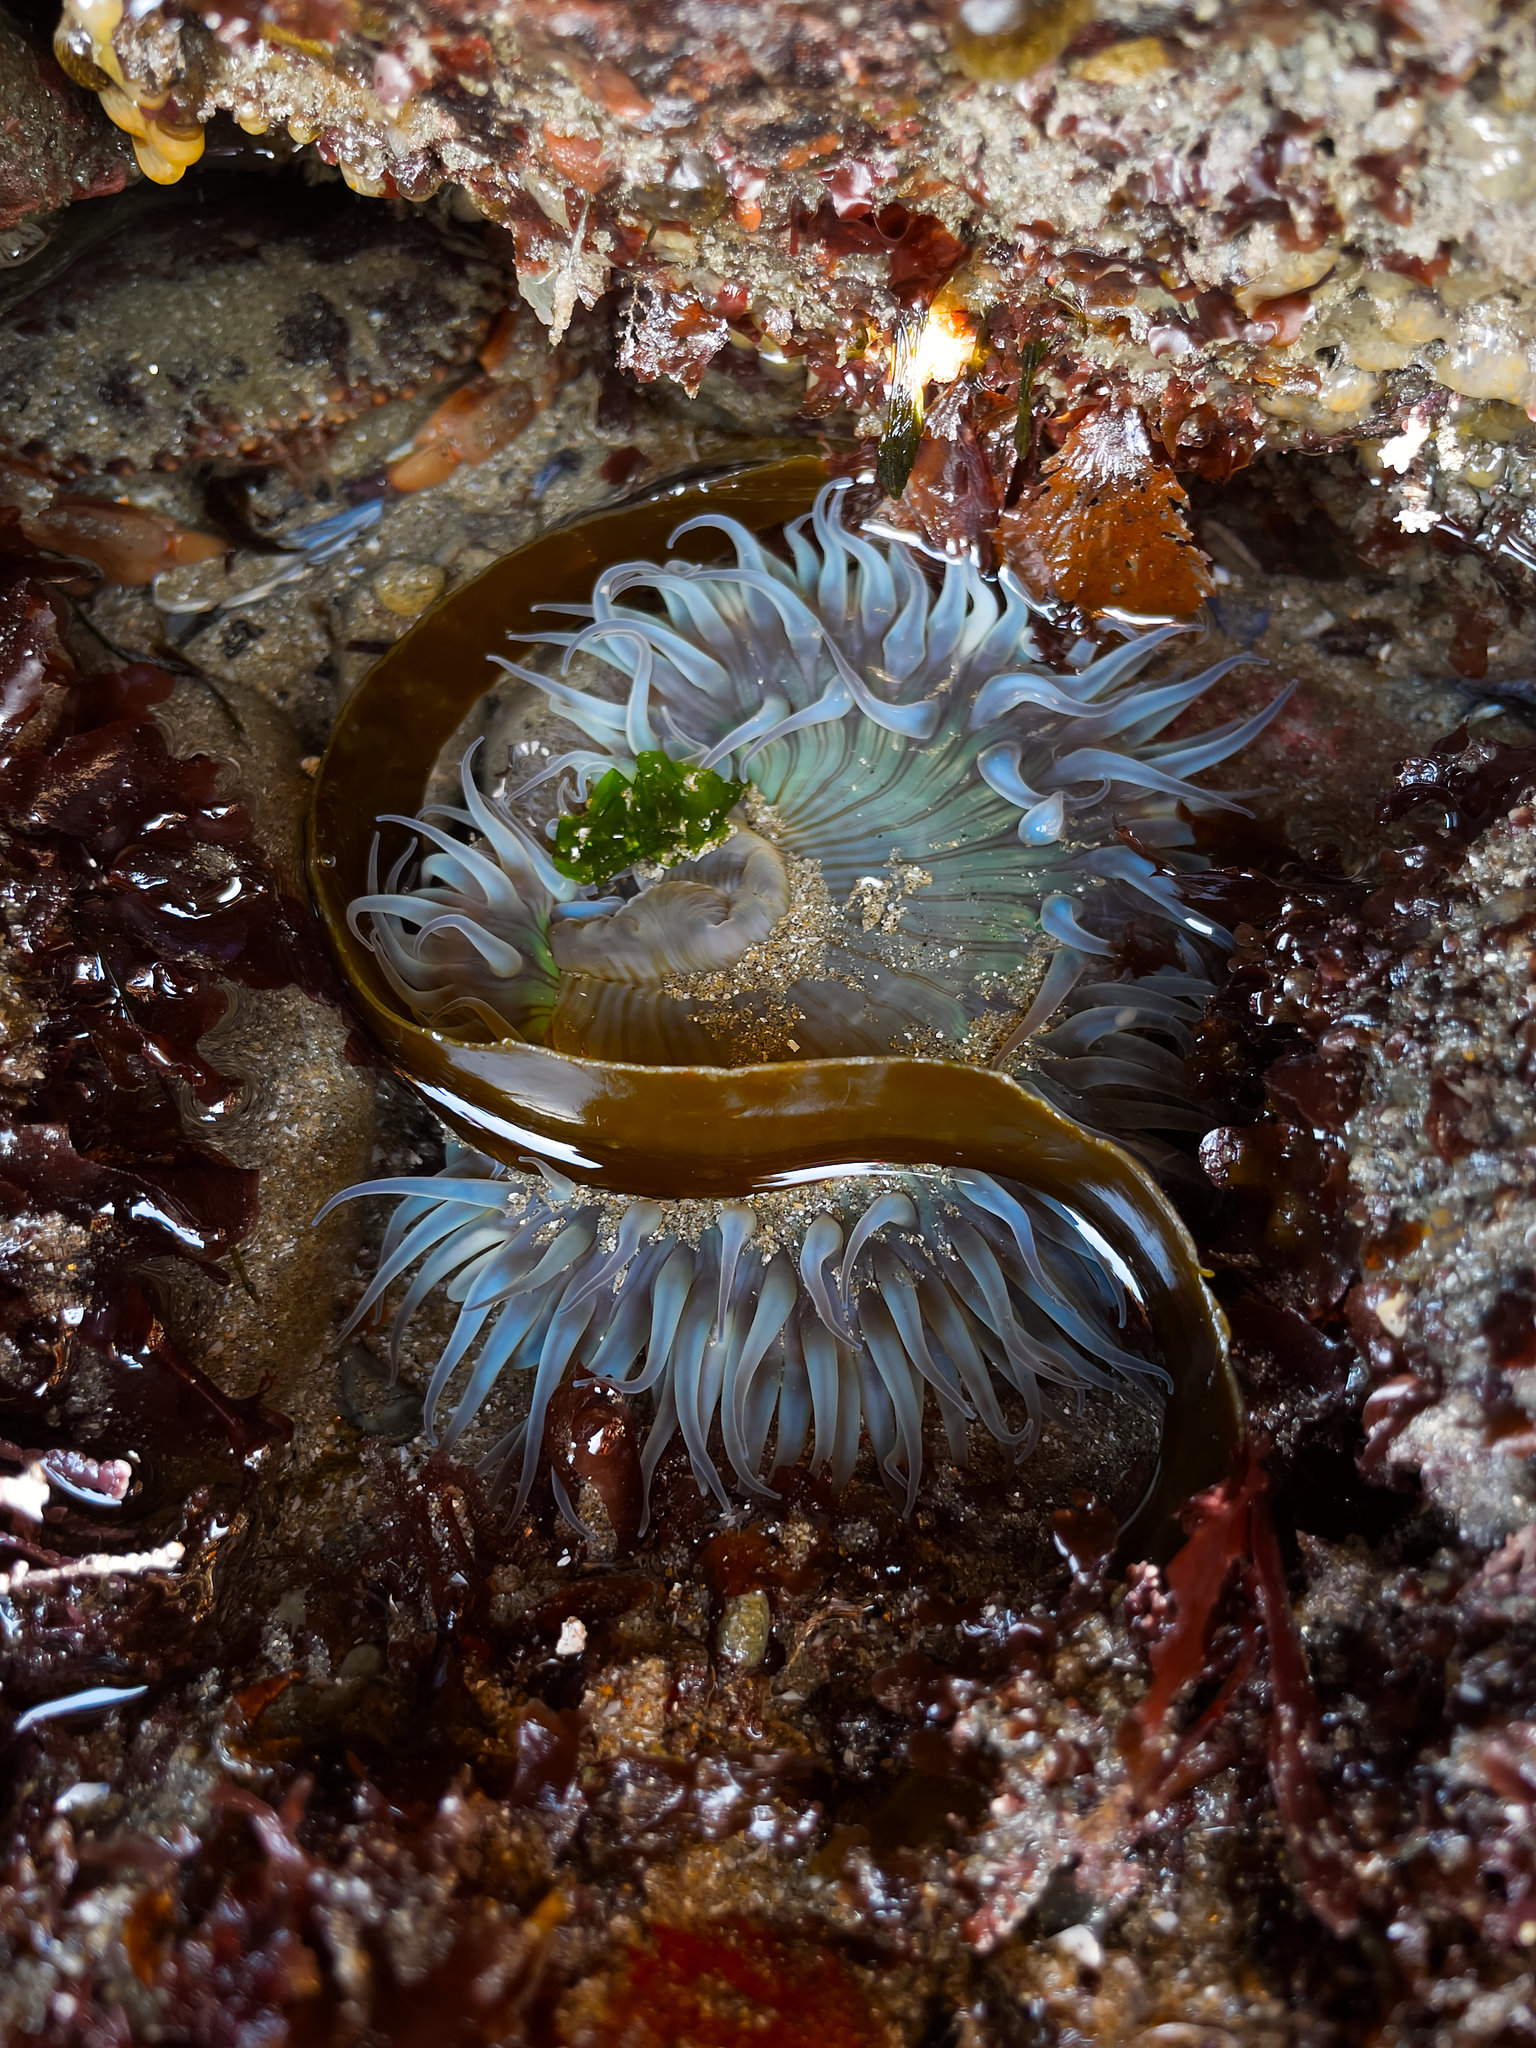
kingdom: Animalia
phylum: Cnidaria
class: Anthozoa
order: Actiniaria
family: Actiniidae
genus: Anthopleura
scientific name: Anthopleura sola
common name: Sun anemone
